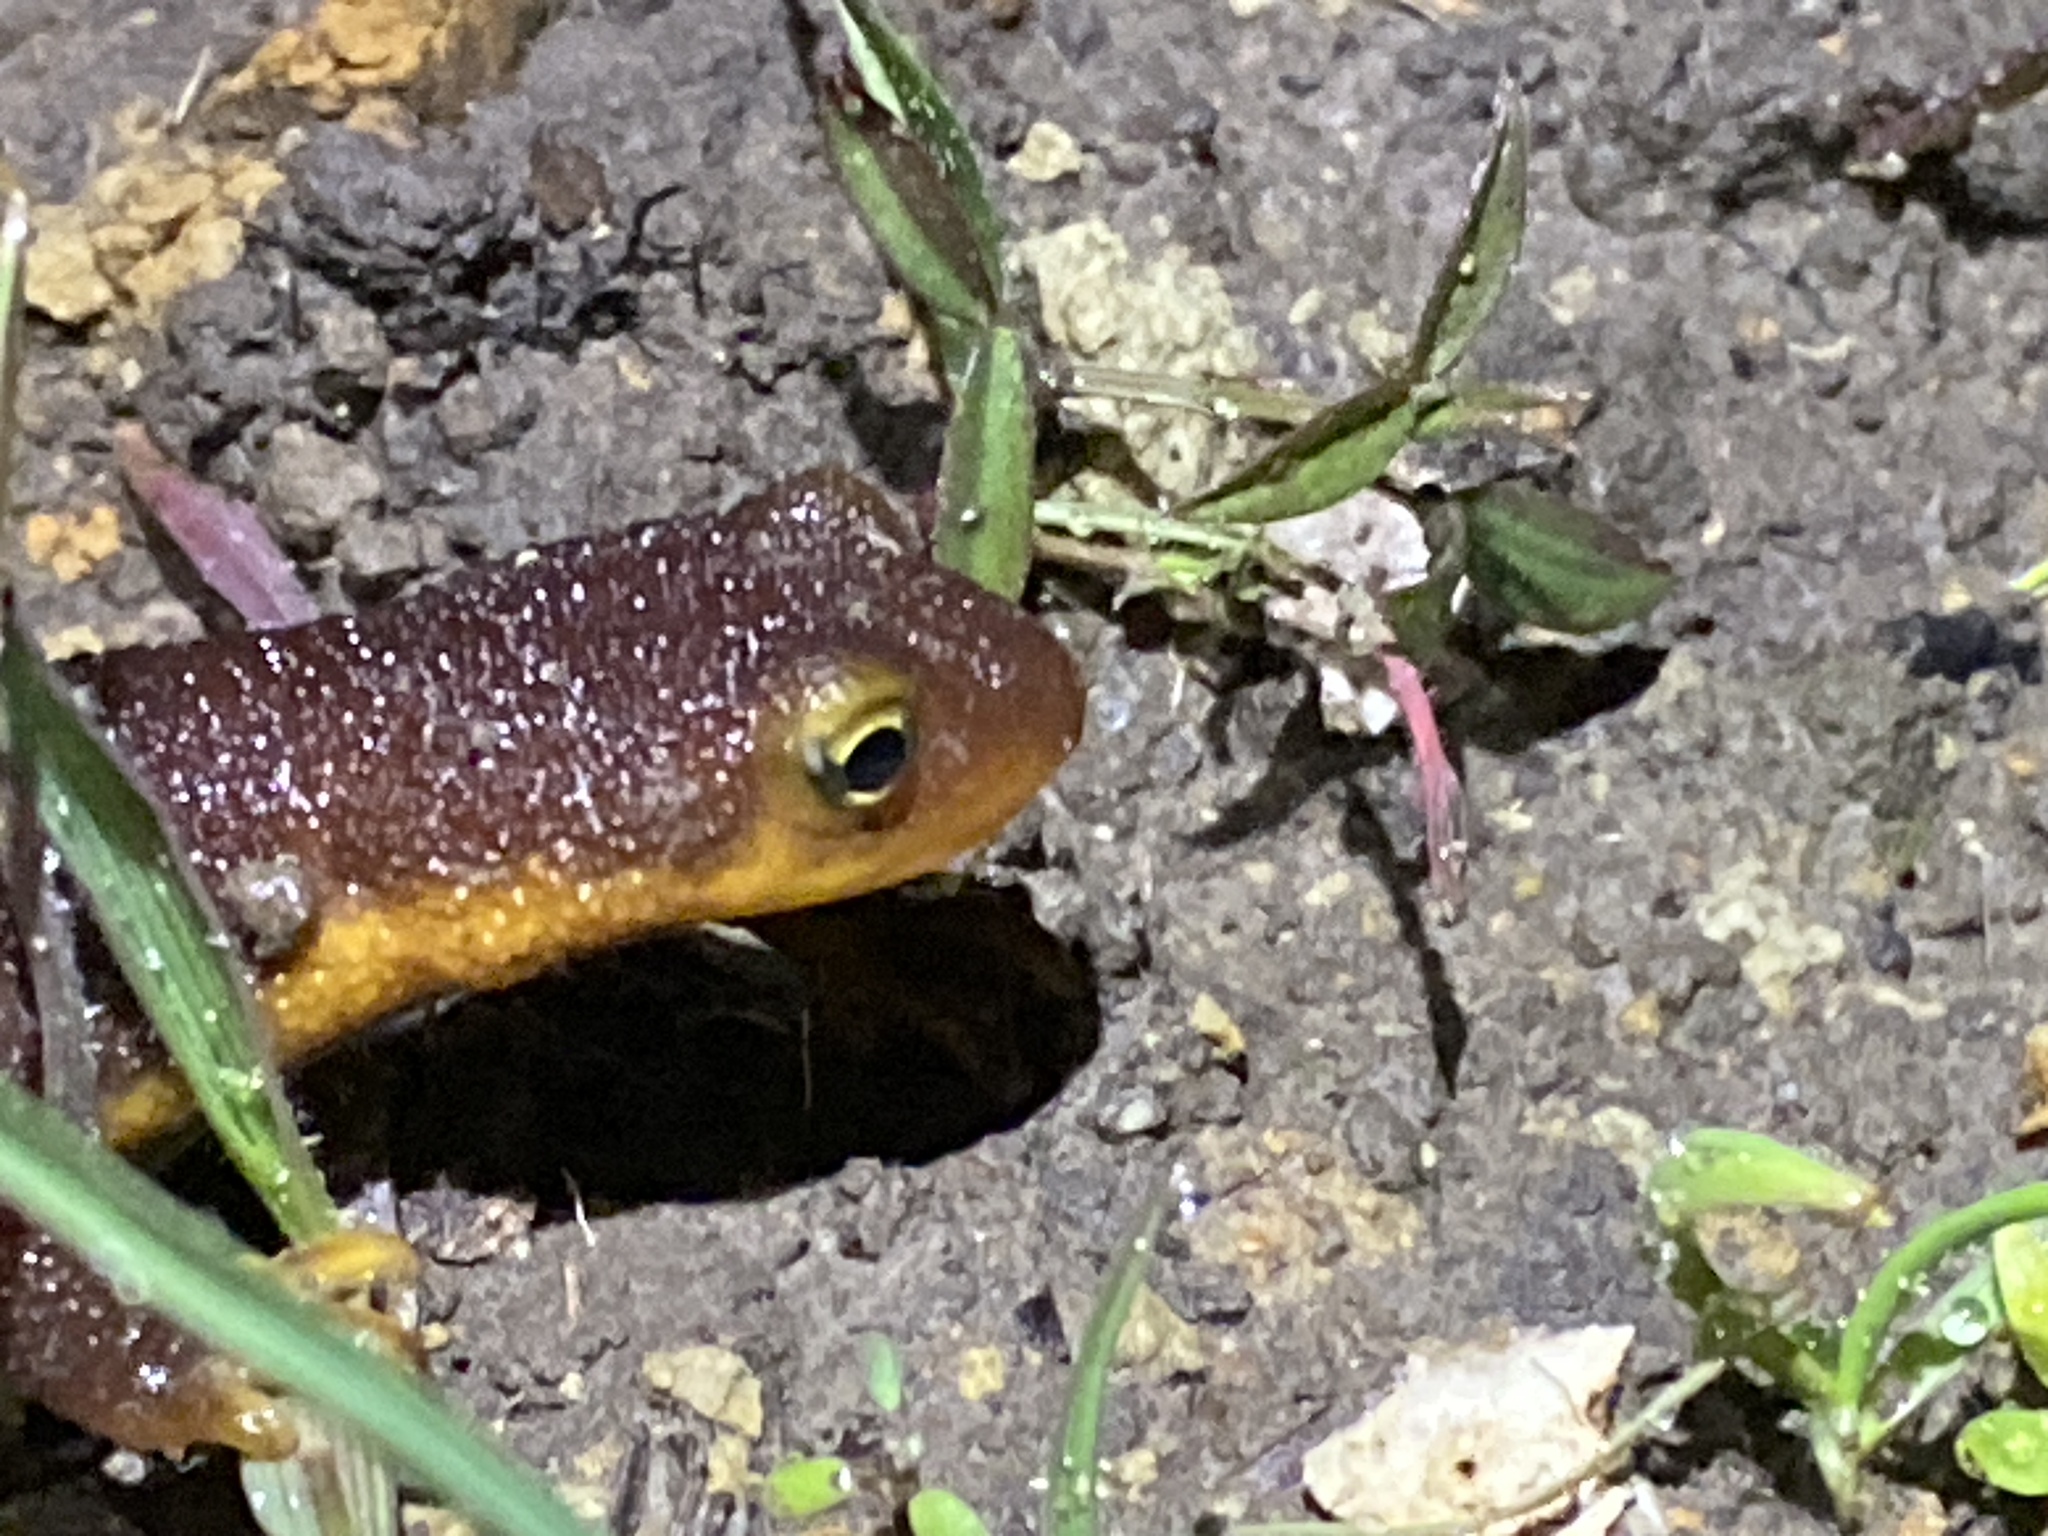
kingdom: Animalia
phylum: Chordata
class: Amphibia
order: Caudata
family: Salamandridae
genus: Taricha
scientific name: Taricha torosa
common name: California newt
